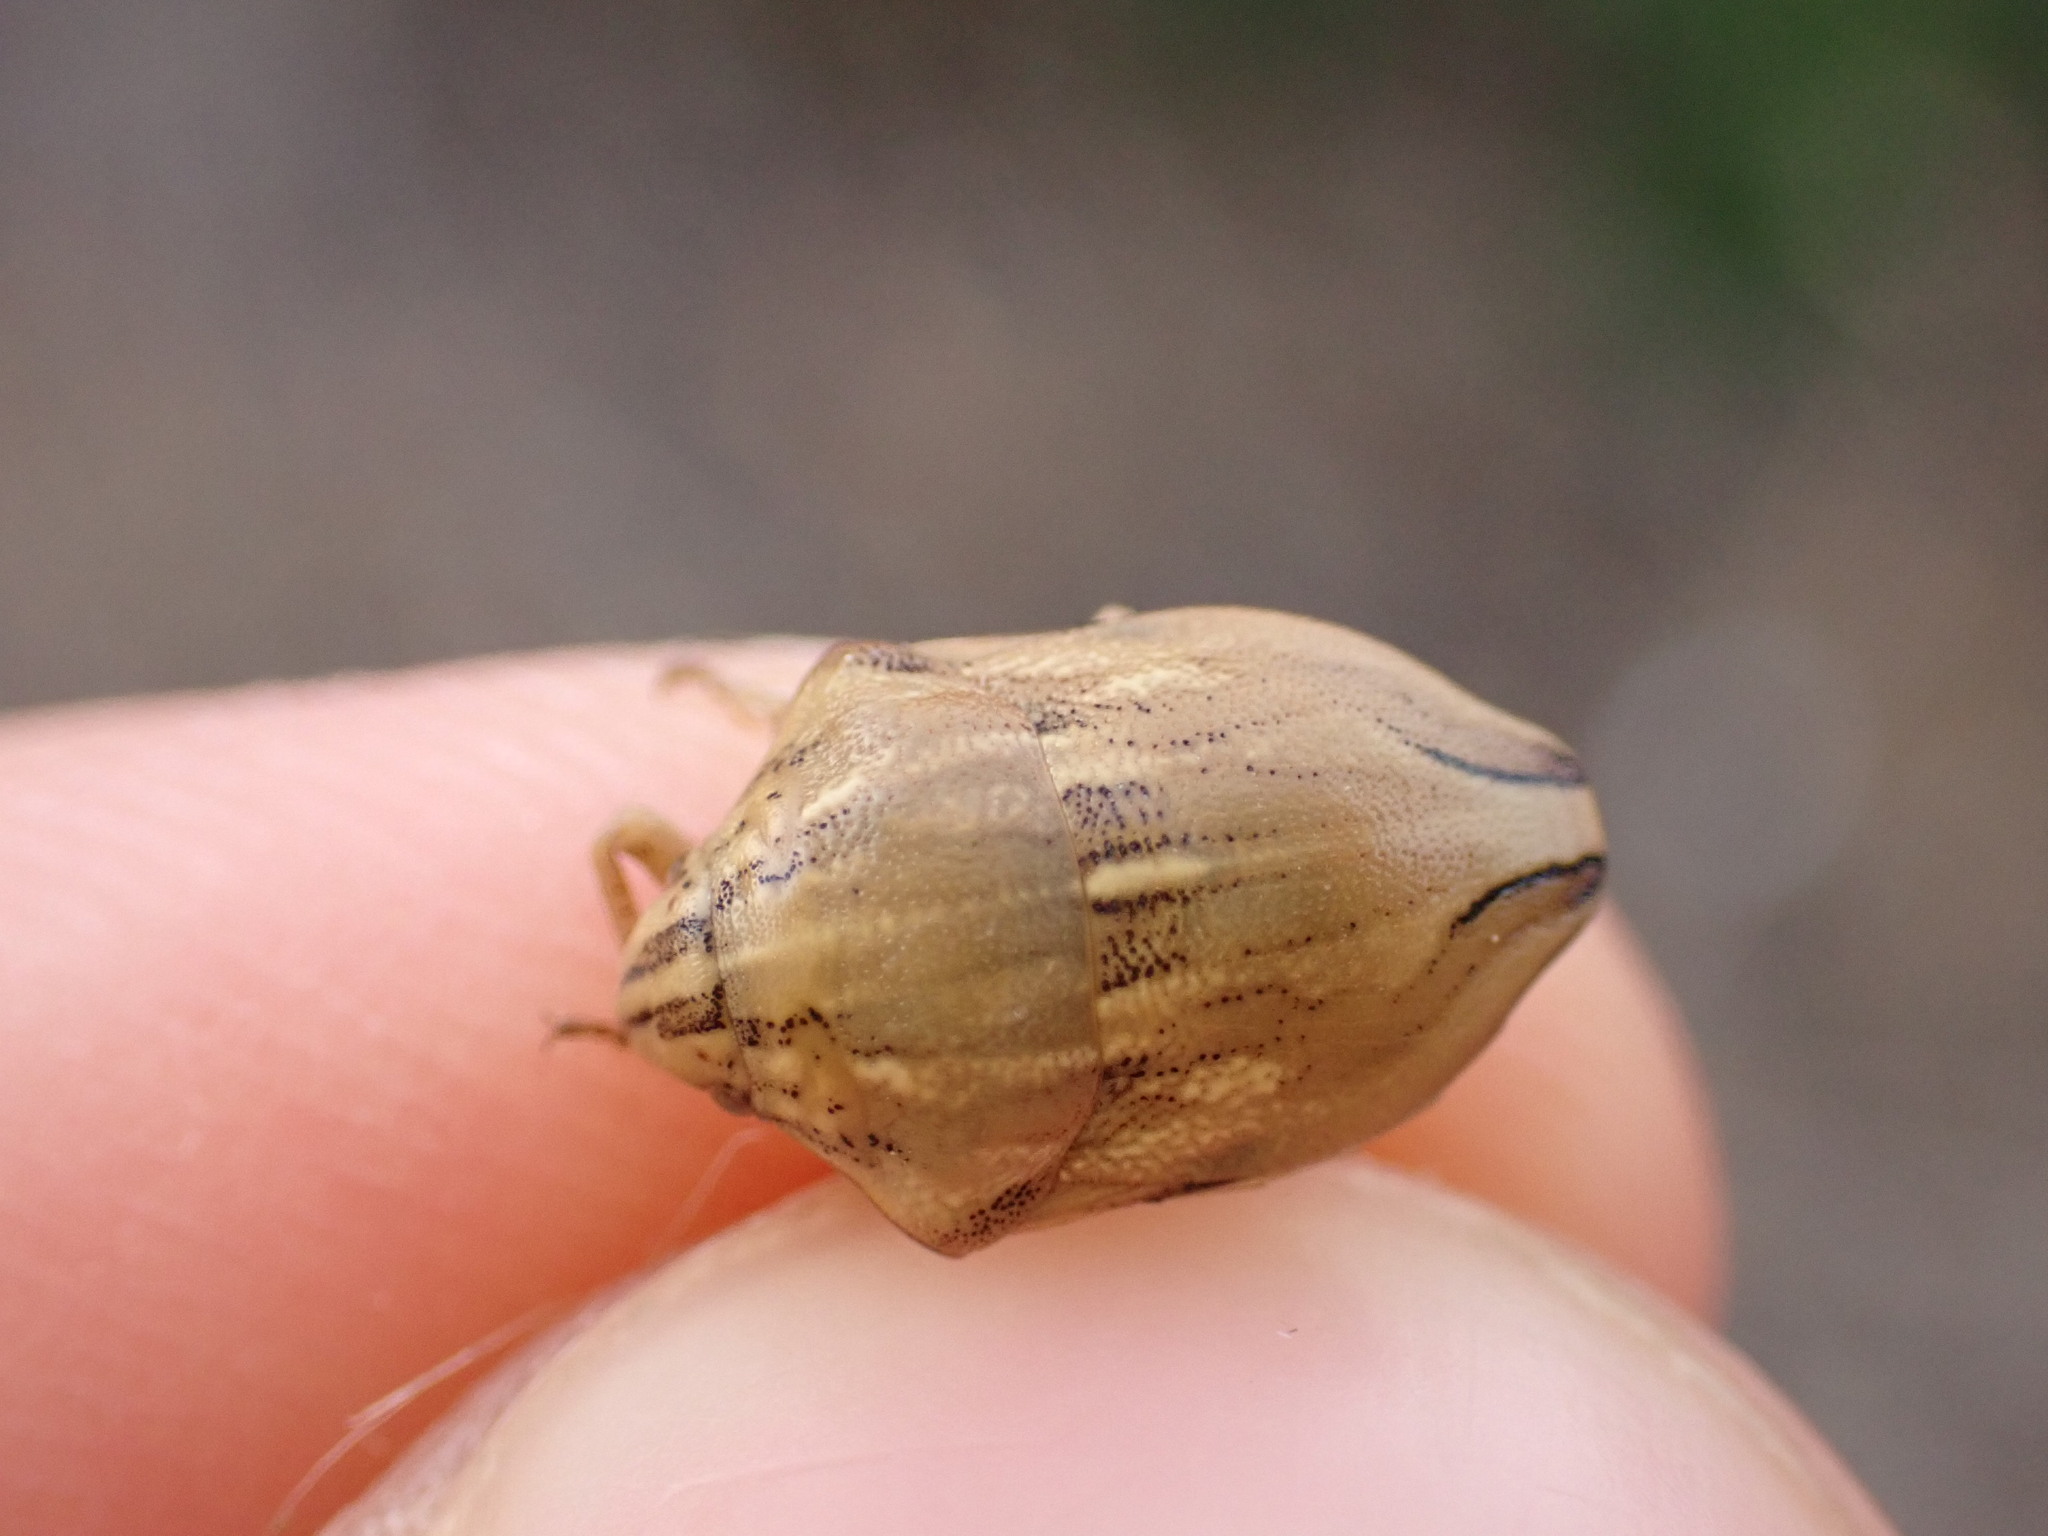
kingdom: Animalia
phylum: Arthropoda
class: Insecta
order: Hemiptera
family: Scutelleridae
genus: Odontotarsus
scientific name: Odontotarsus purpureolineatus
